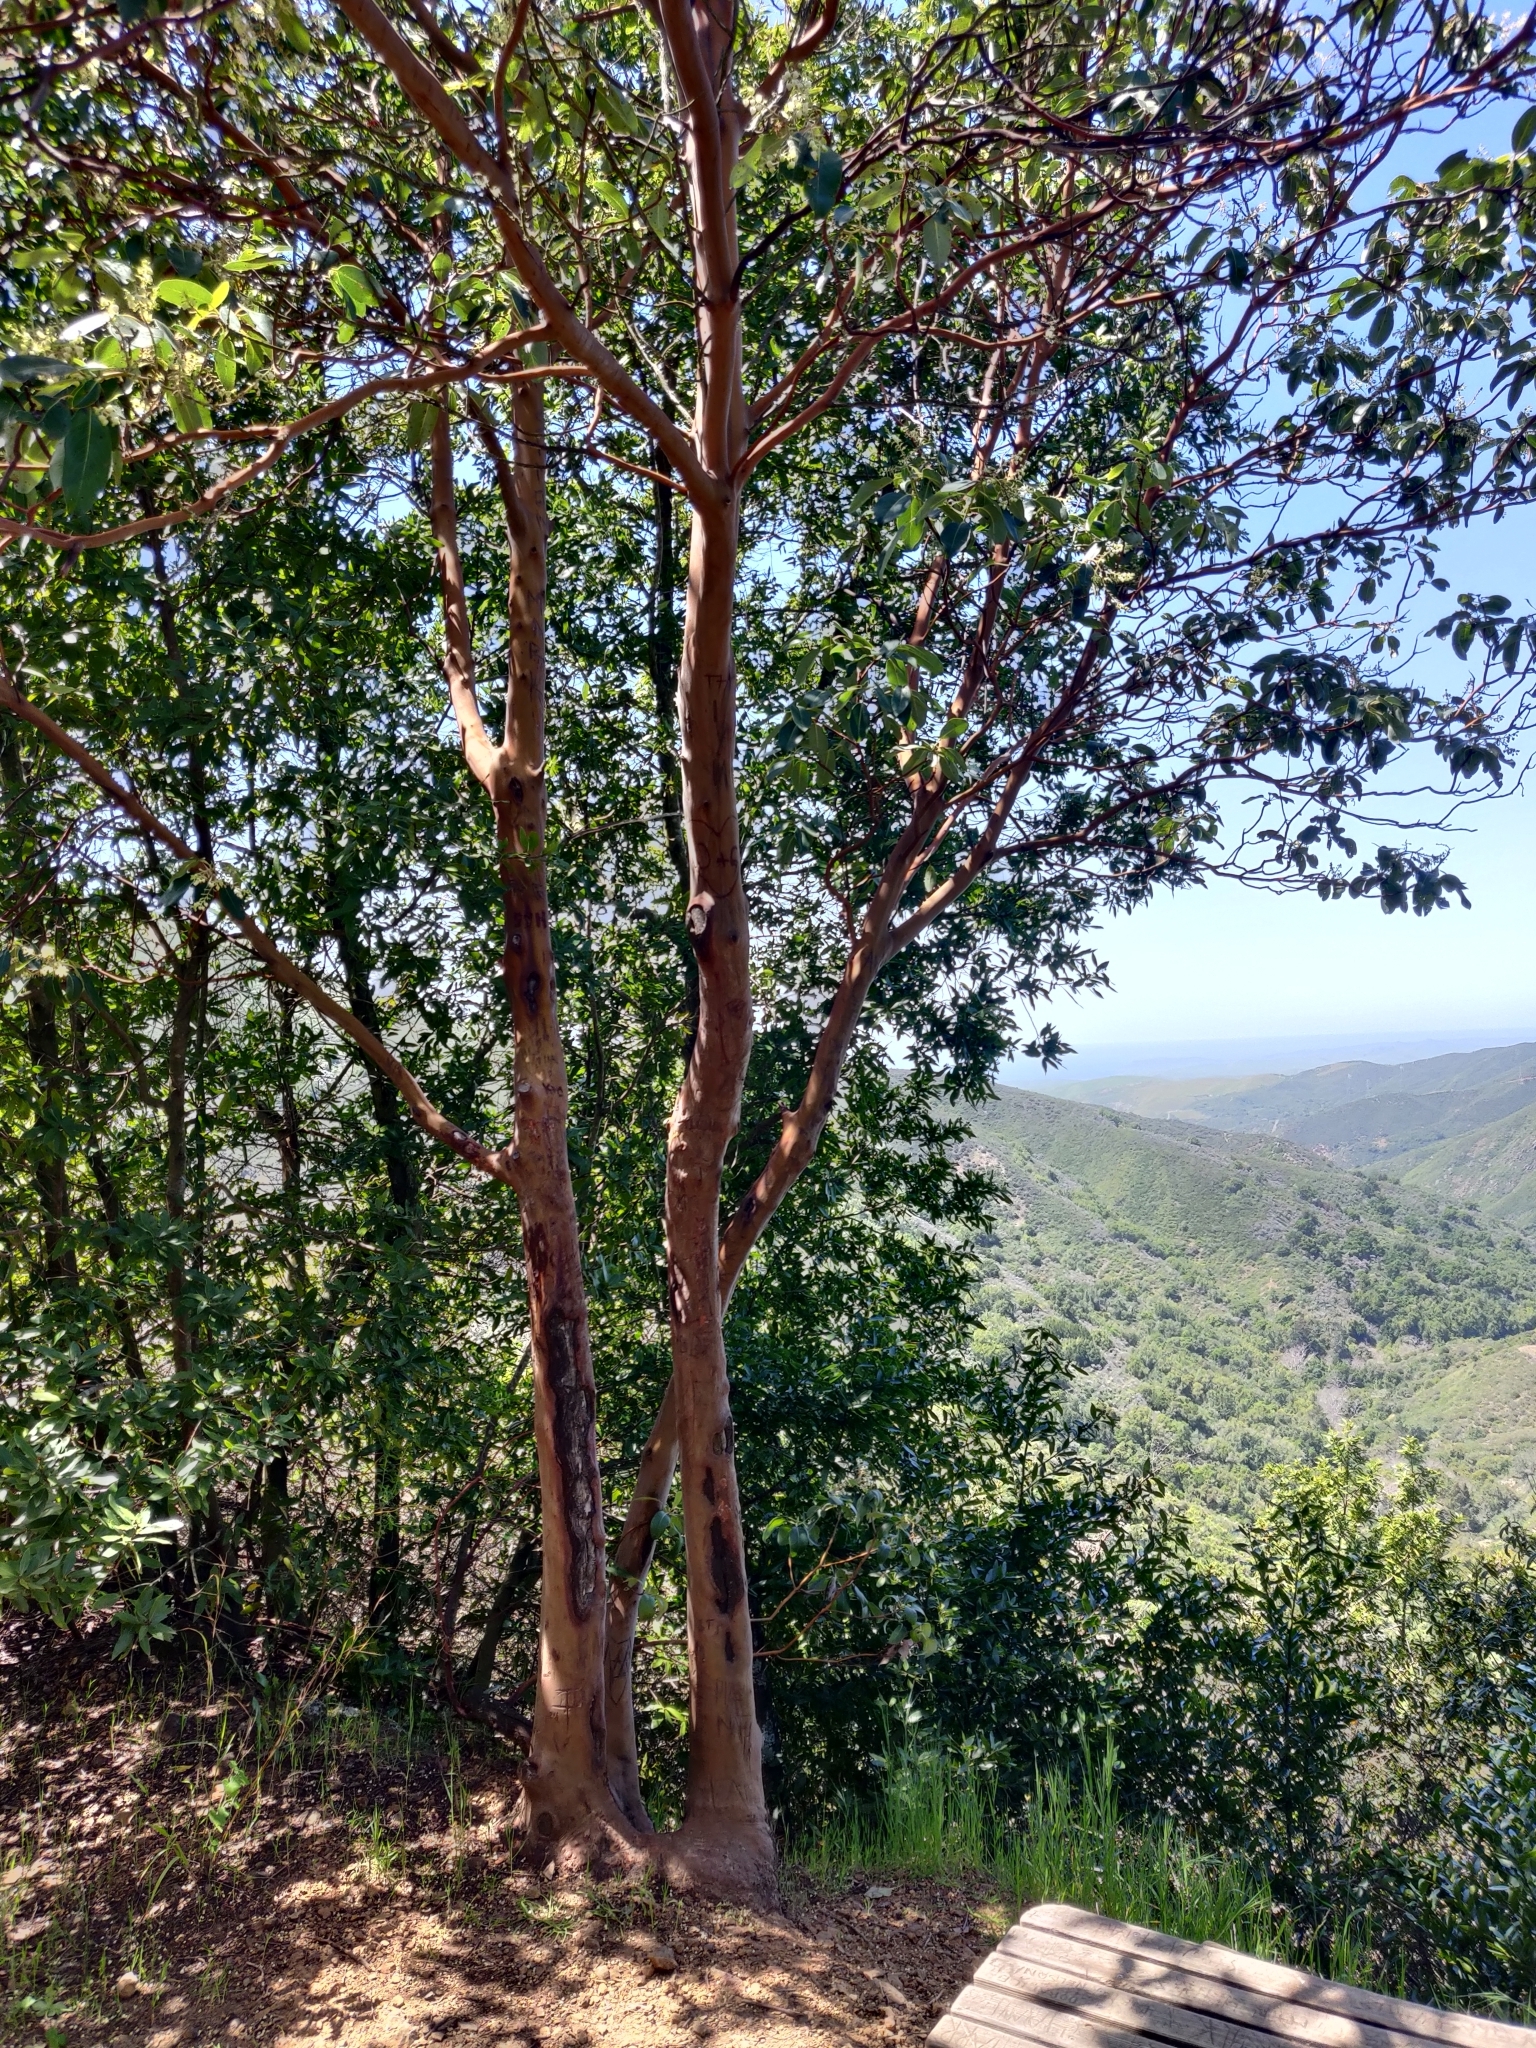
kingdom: Plantae
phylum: Tracheophyta
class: Magnoliopsida
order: Ericales
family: Ericaceae
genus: Arbutus
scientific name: Arbutus menziesii
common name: Pacific madrone
